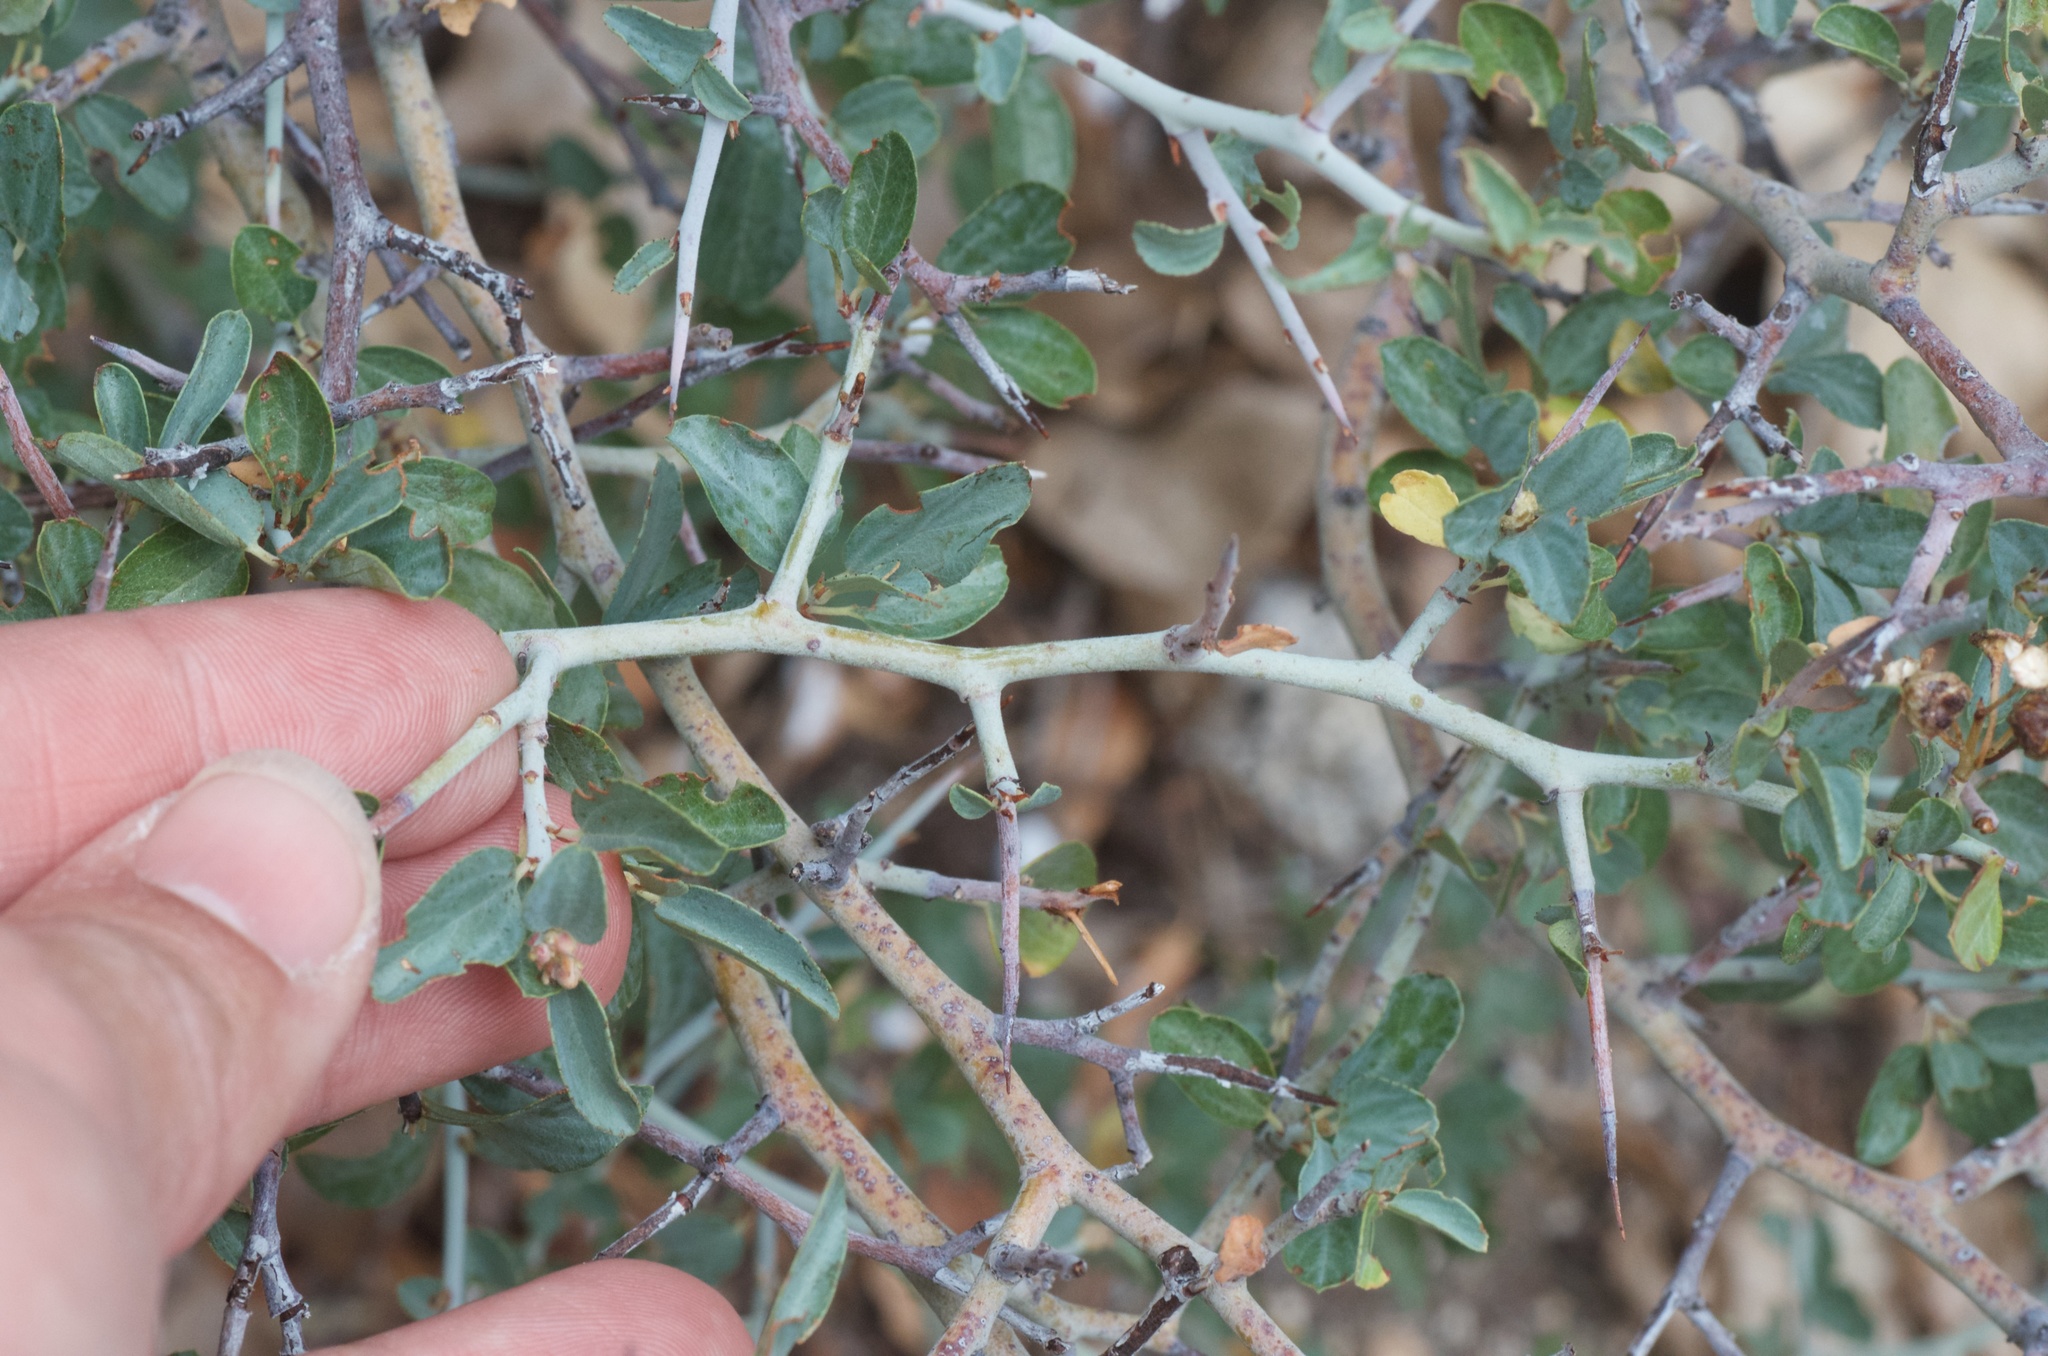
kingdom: Plantae
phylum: Tracheophyta
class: Magnoliopsida
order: Rosales
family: Rhamnaceae
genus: Ceanothus
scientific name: Ceanothus cordulatus
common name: Mountain whitethorn
